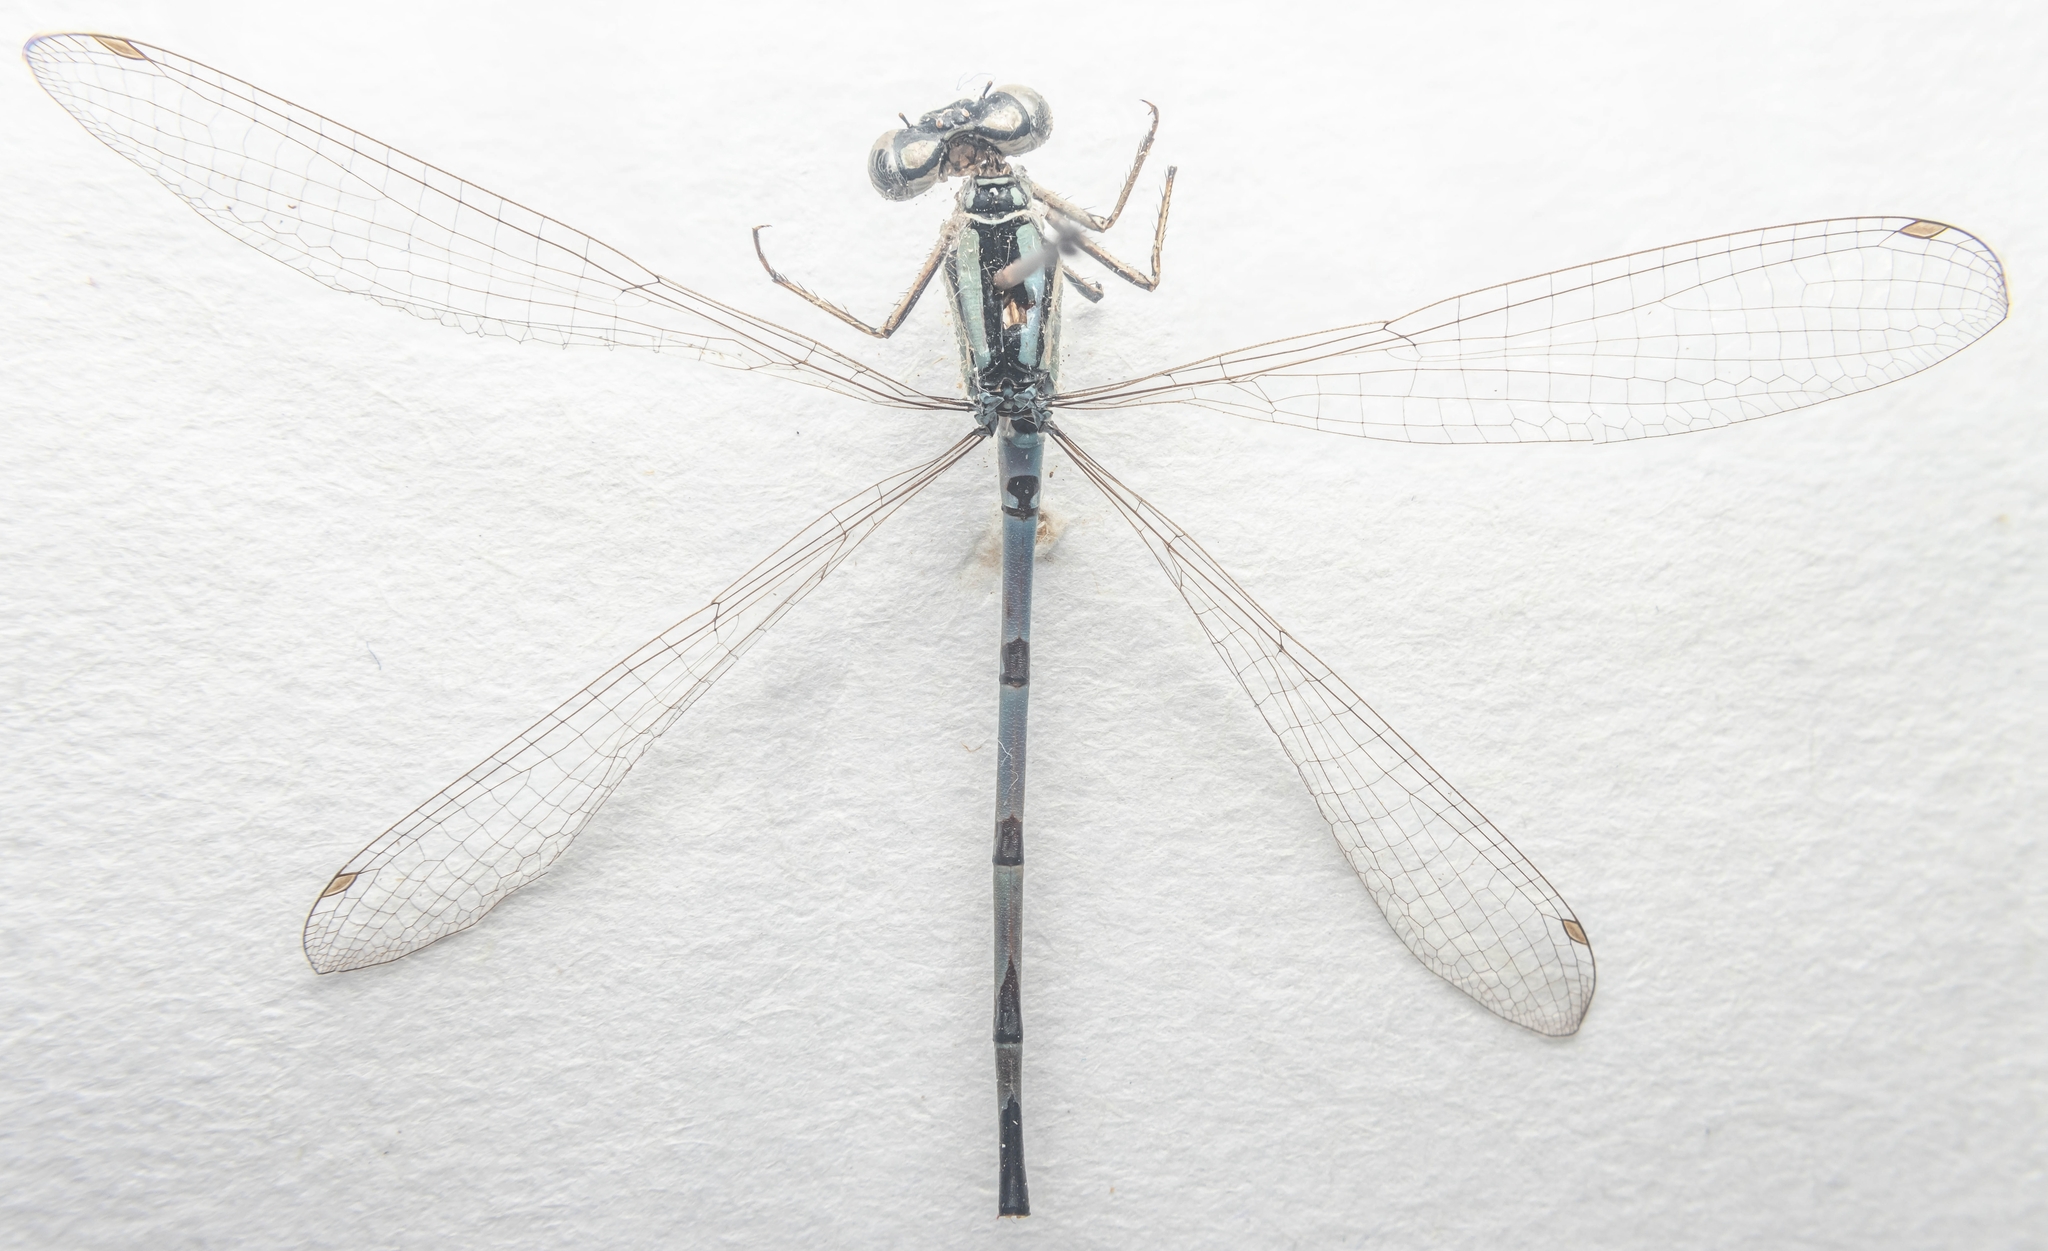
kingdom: Animalia
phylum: Arthropoda
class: Insecta
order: Odonata
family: Coenagrionidae
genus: Enallagma
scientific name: Enallagma cyathigerum
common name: Common blue damselfly
